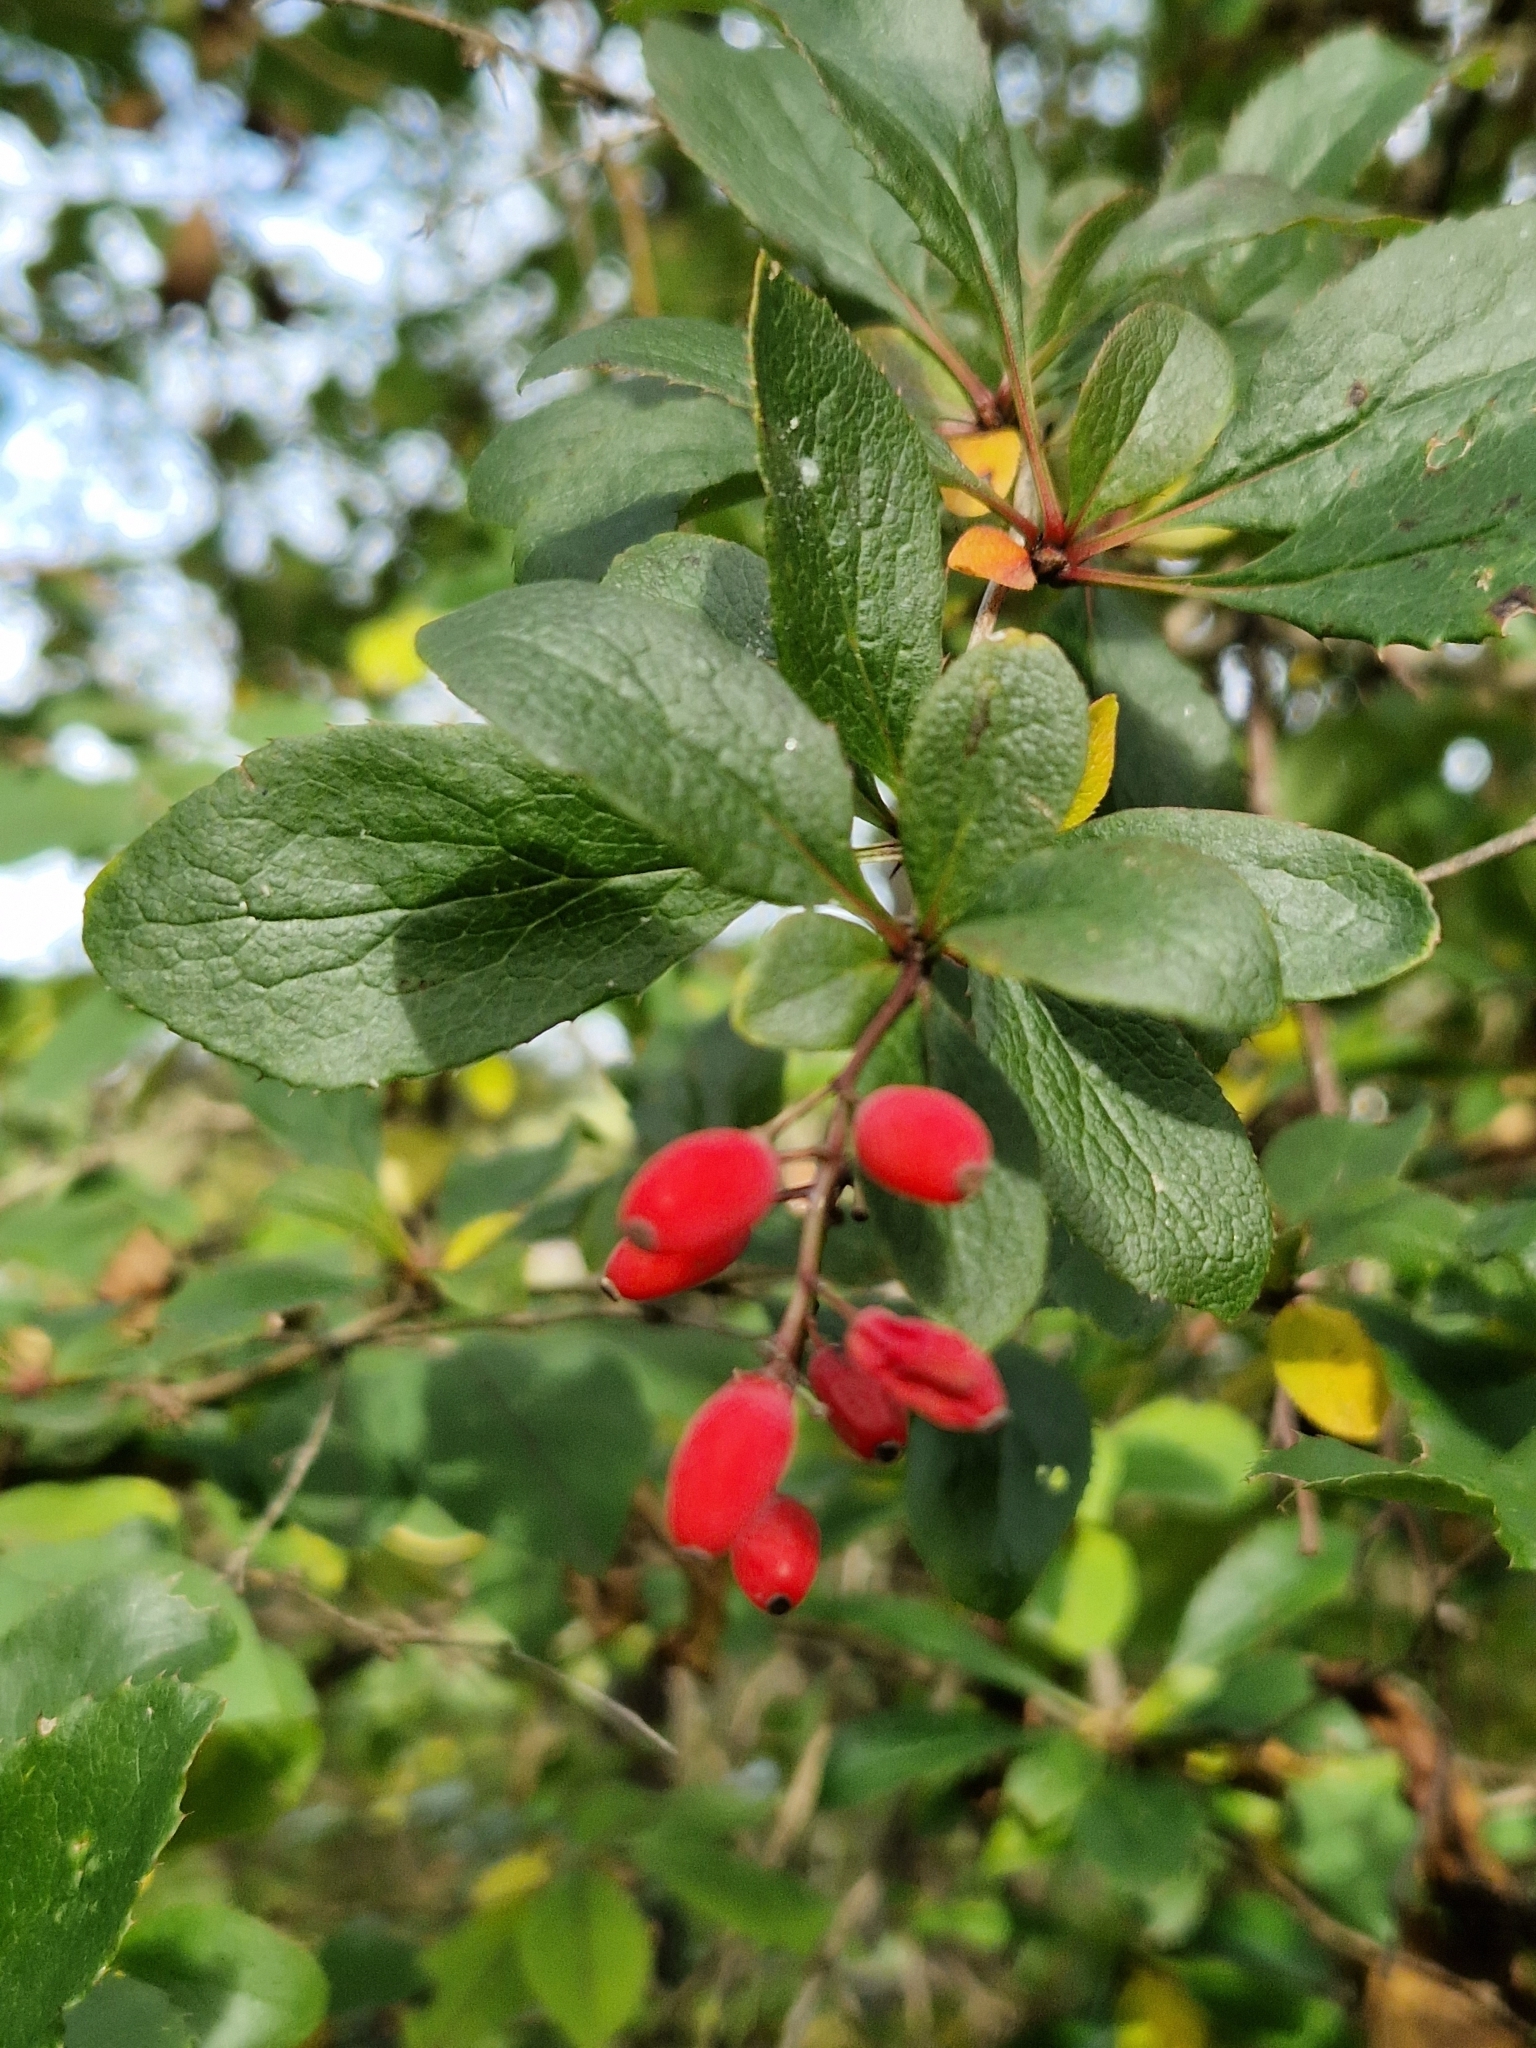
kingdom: Plantae
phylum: Tracheophyta
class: Magnoliopsida
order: Ranunculales
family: Berberidaceae
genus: Berberis
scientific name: Berberis vulgaris
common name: Barberry
